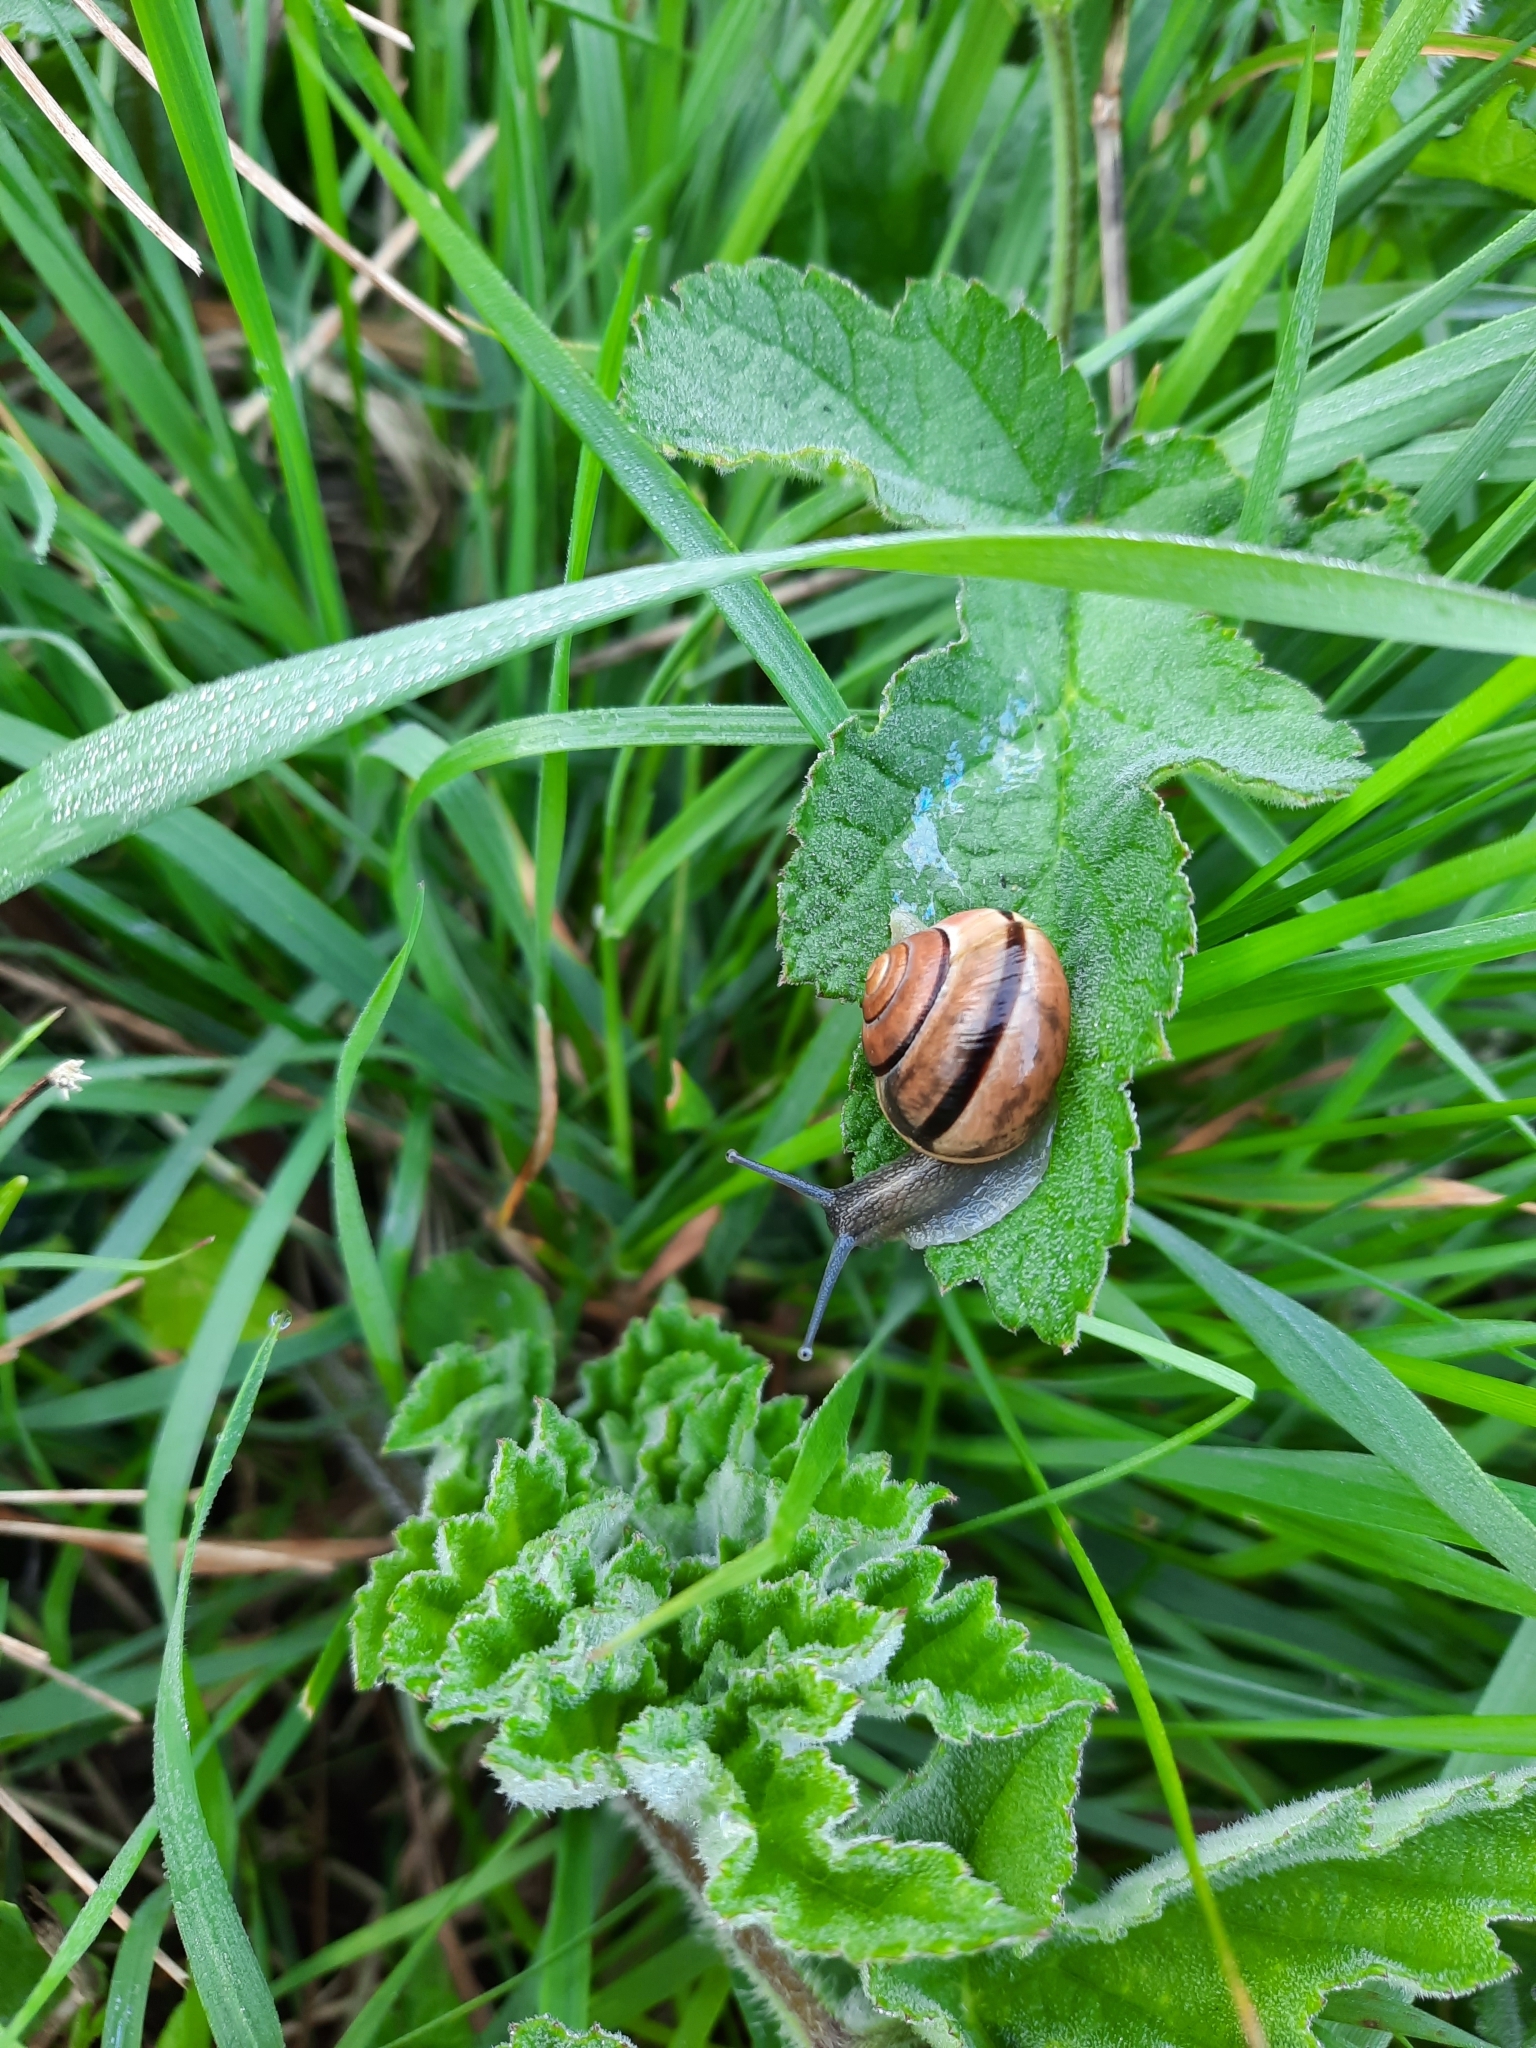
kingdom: Animalia
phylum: Mollusca
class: Gastropoda
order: Stylommatophora
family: Helicidae
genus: Cepaea
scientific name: Cepaea nemoralis
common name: Grovesnail
